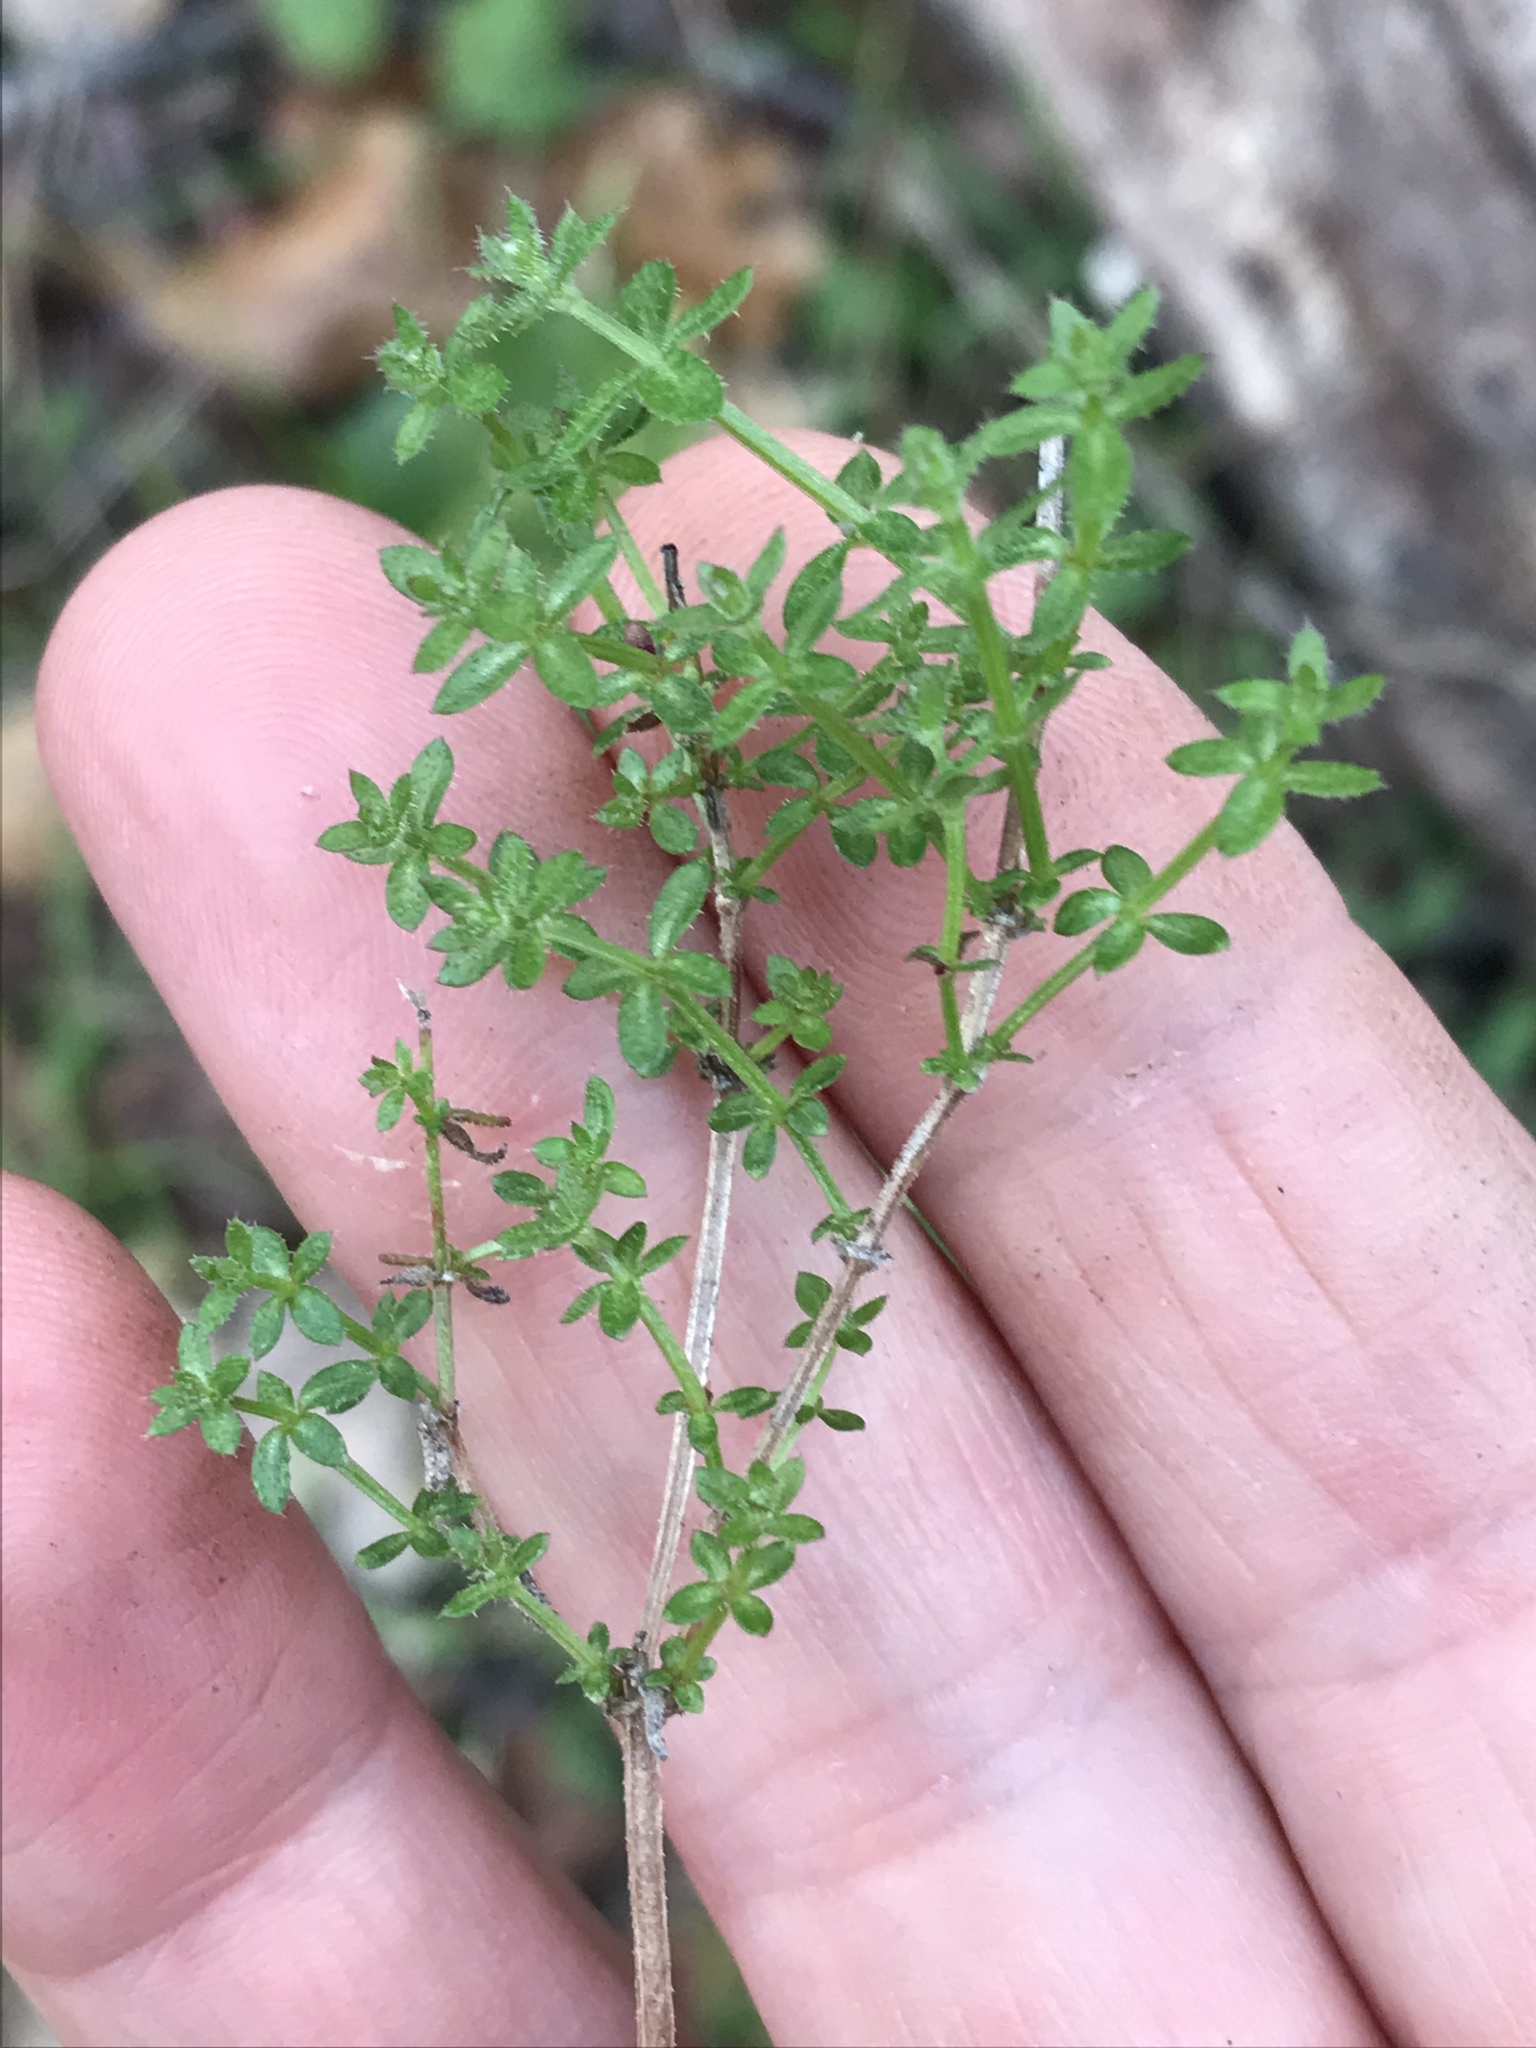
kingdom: Plantae
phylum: Tracheophyta
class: Magnoliopsida
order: Gentianales
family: Rubiaceae
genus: Galium
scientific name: Galium porrigens
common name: Climbing bedstraw
